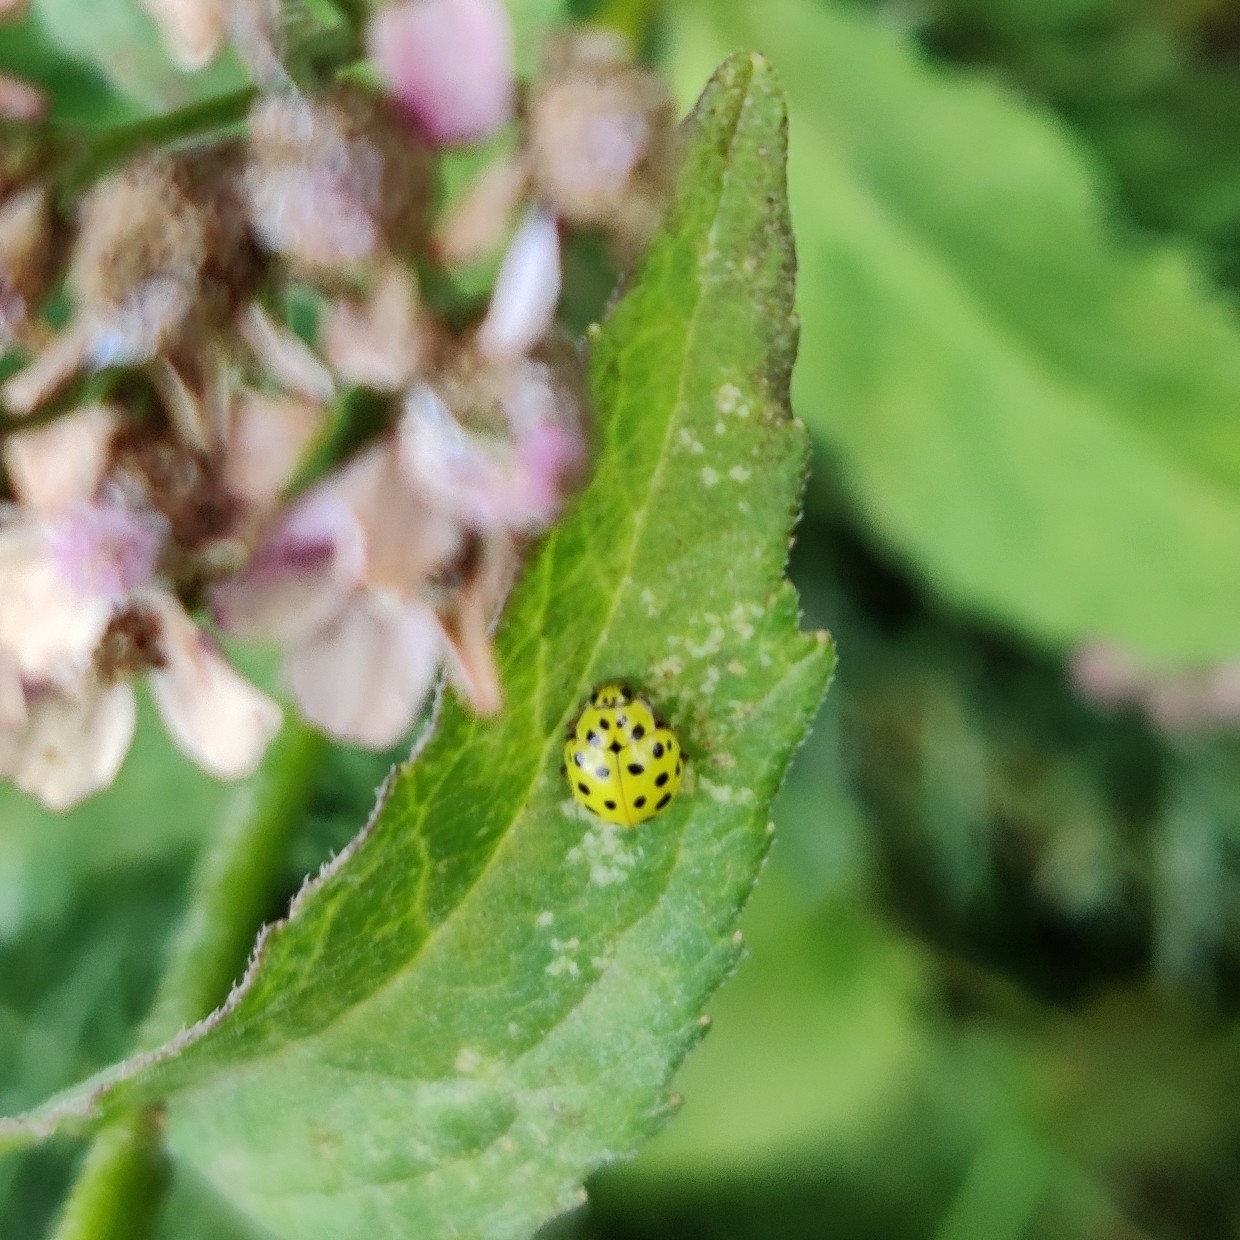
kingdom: Animalia
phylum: Arthropoda
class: Insecta
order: Coleoptera
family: Coccinellidae
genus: Psyllobora
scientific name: Psyllobora vigintiduopunctata
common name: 22-spot ladybird
